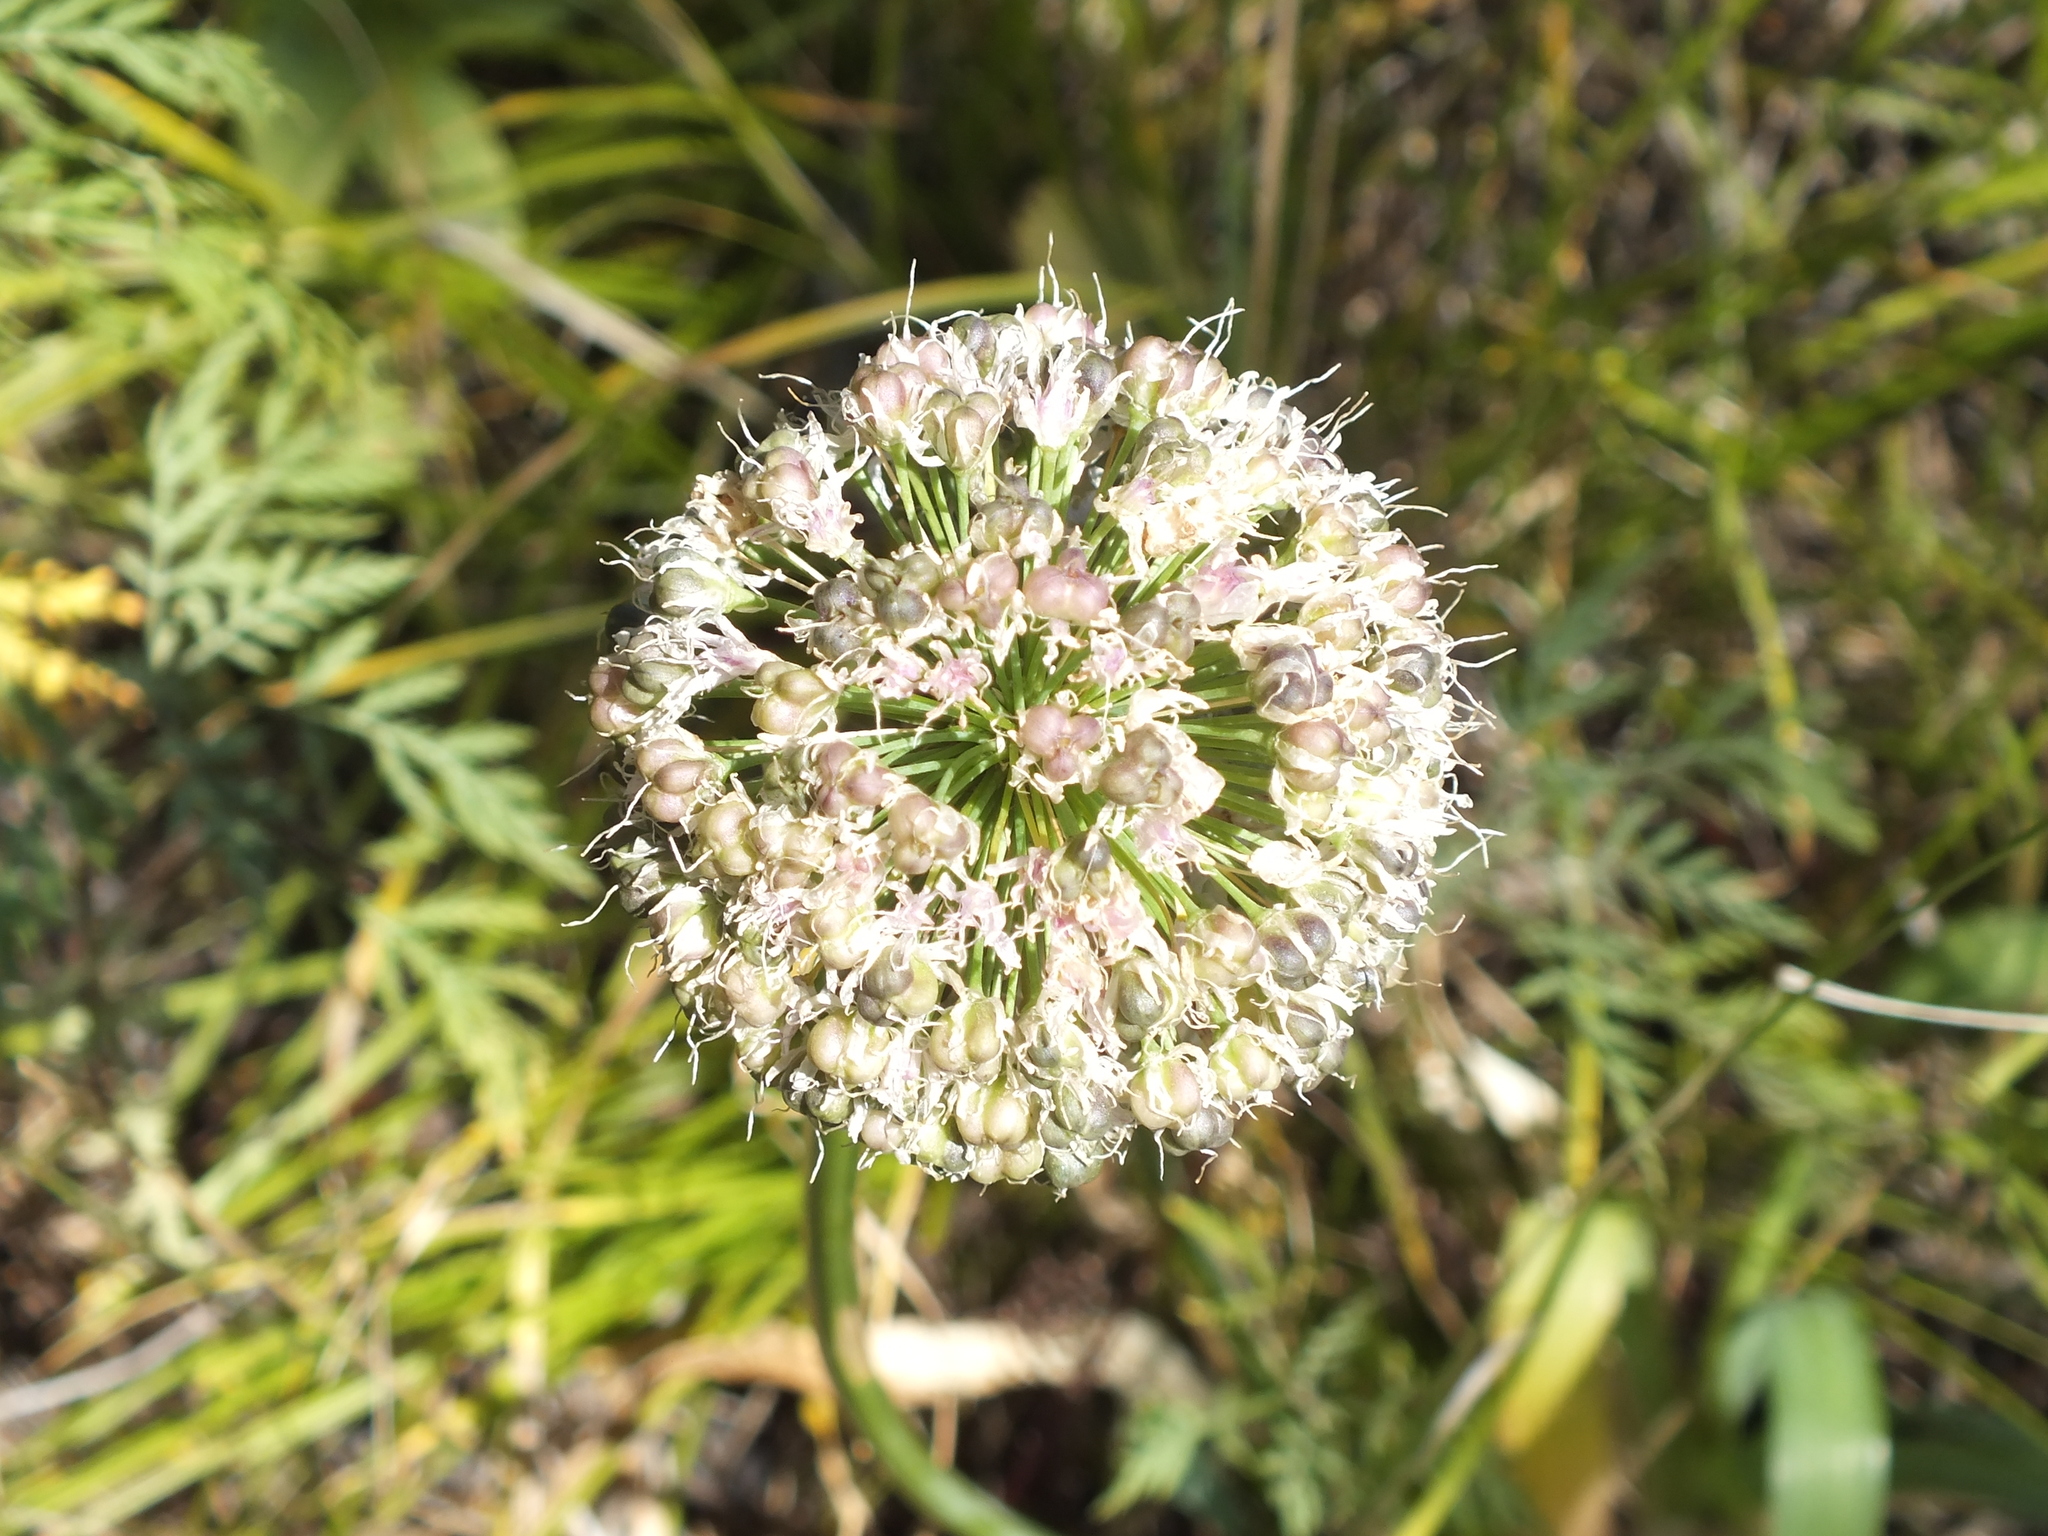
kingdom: Plantae
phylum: Tracheophyta
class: Liliopsida
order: Asparagales
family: Amaryllidaceae
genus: Allium
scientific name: Allium nutans
